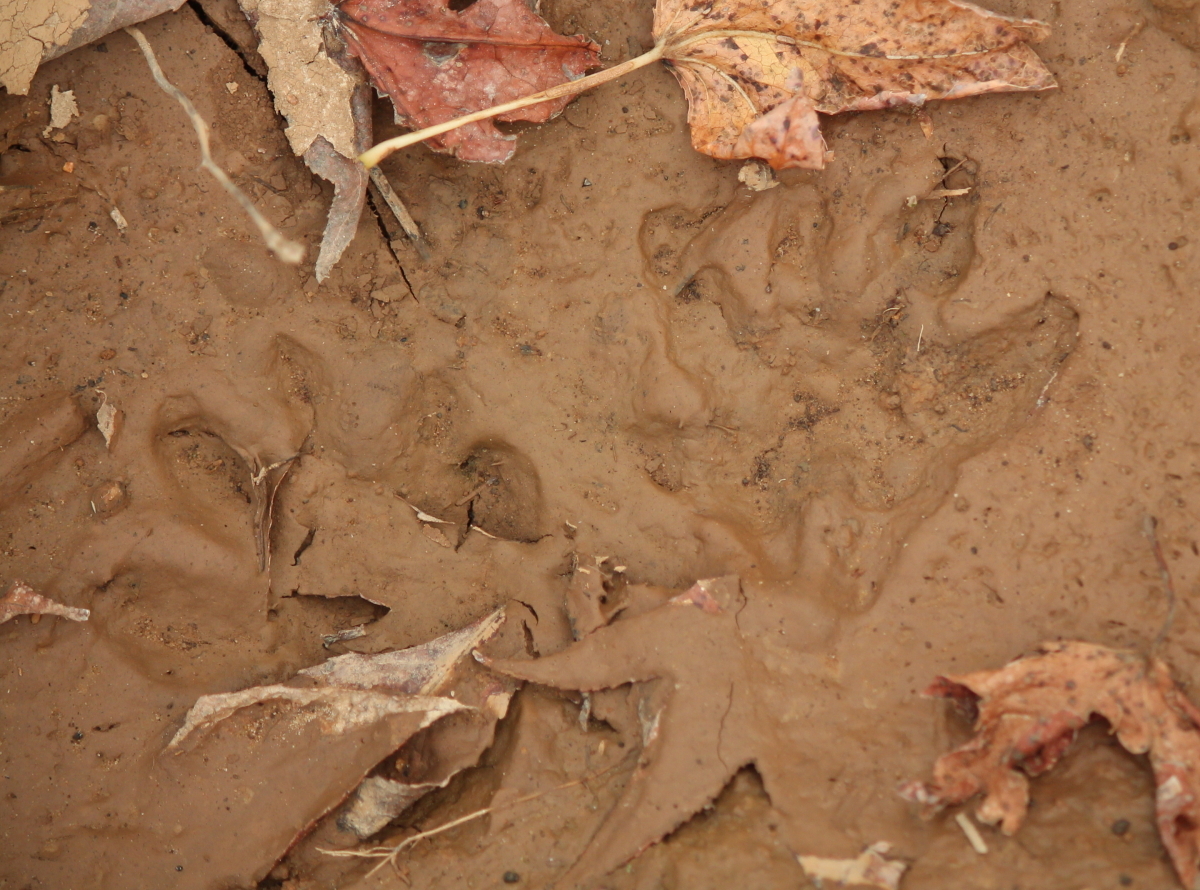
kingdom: Animalia
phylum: Chordata
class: Mammalia
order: Carnivora
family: Procyonidae
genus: Procyon
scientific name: Procyon lotor
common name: Raccoon
